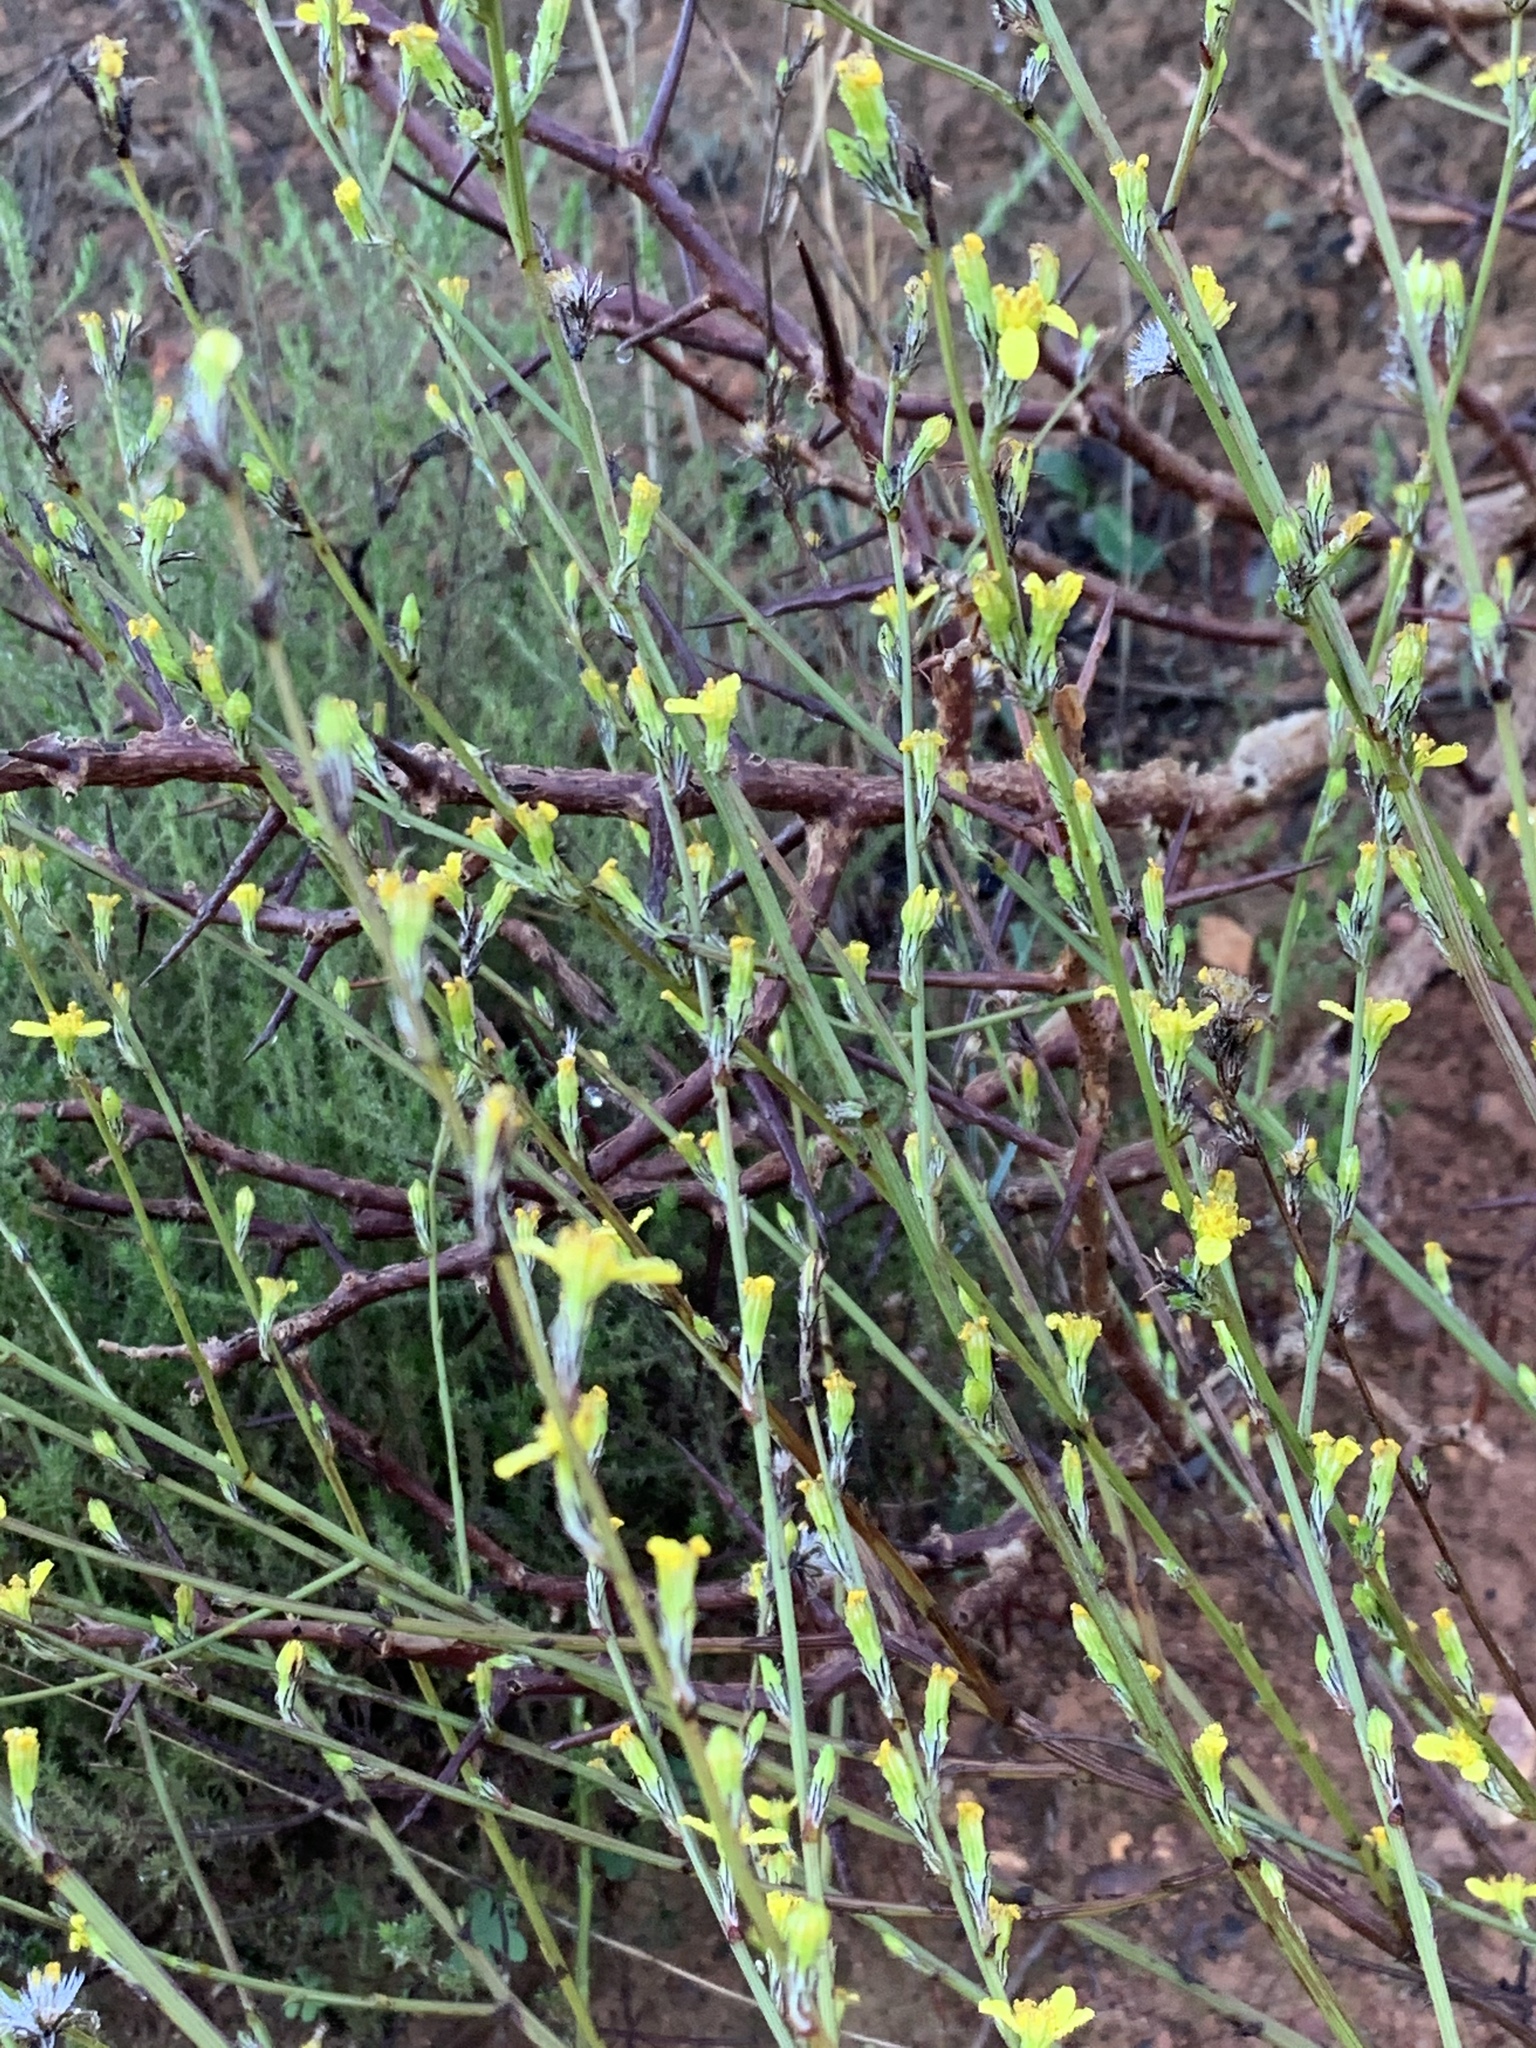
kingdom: Plantae
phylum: Tracheophyta
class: Magnoliopsida
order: Asterales
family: Asteraceae
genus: Senecio
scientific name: Senecio pubigerus
